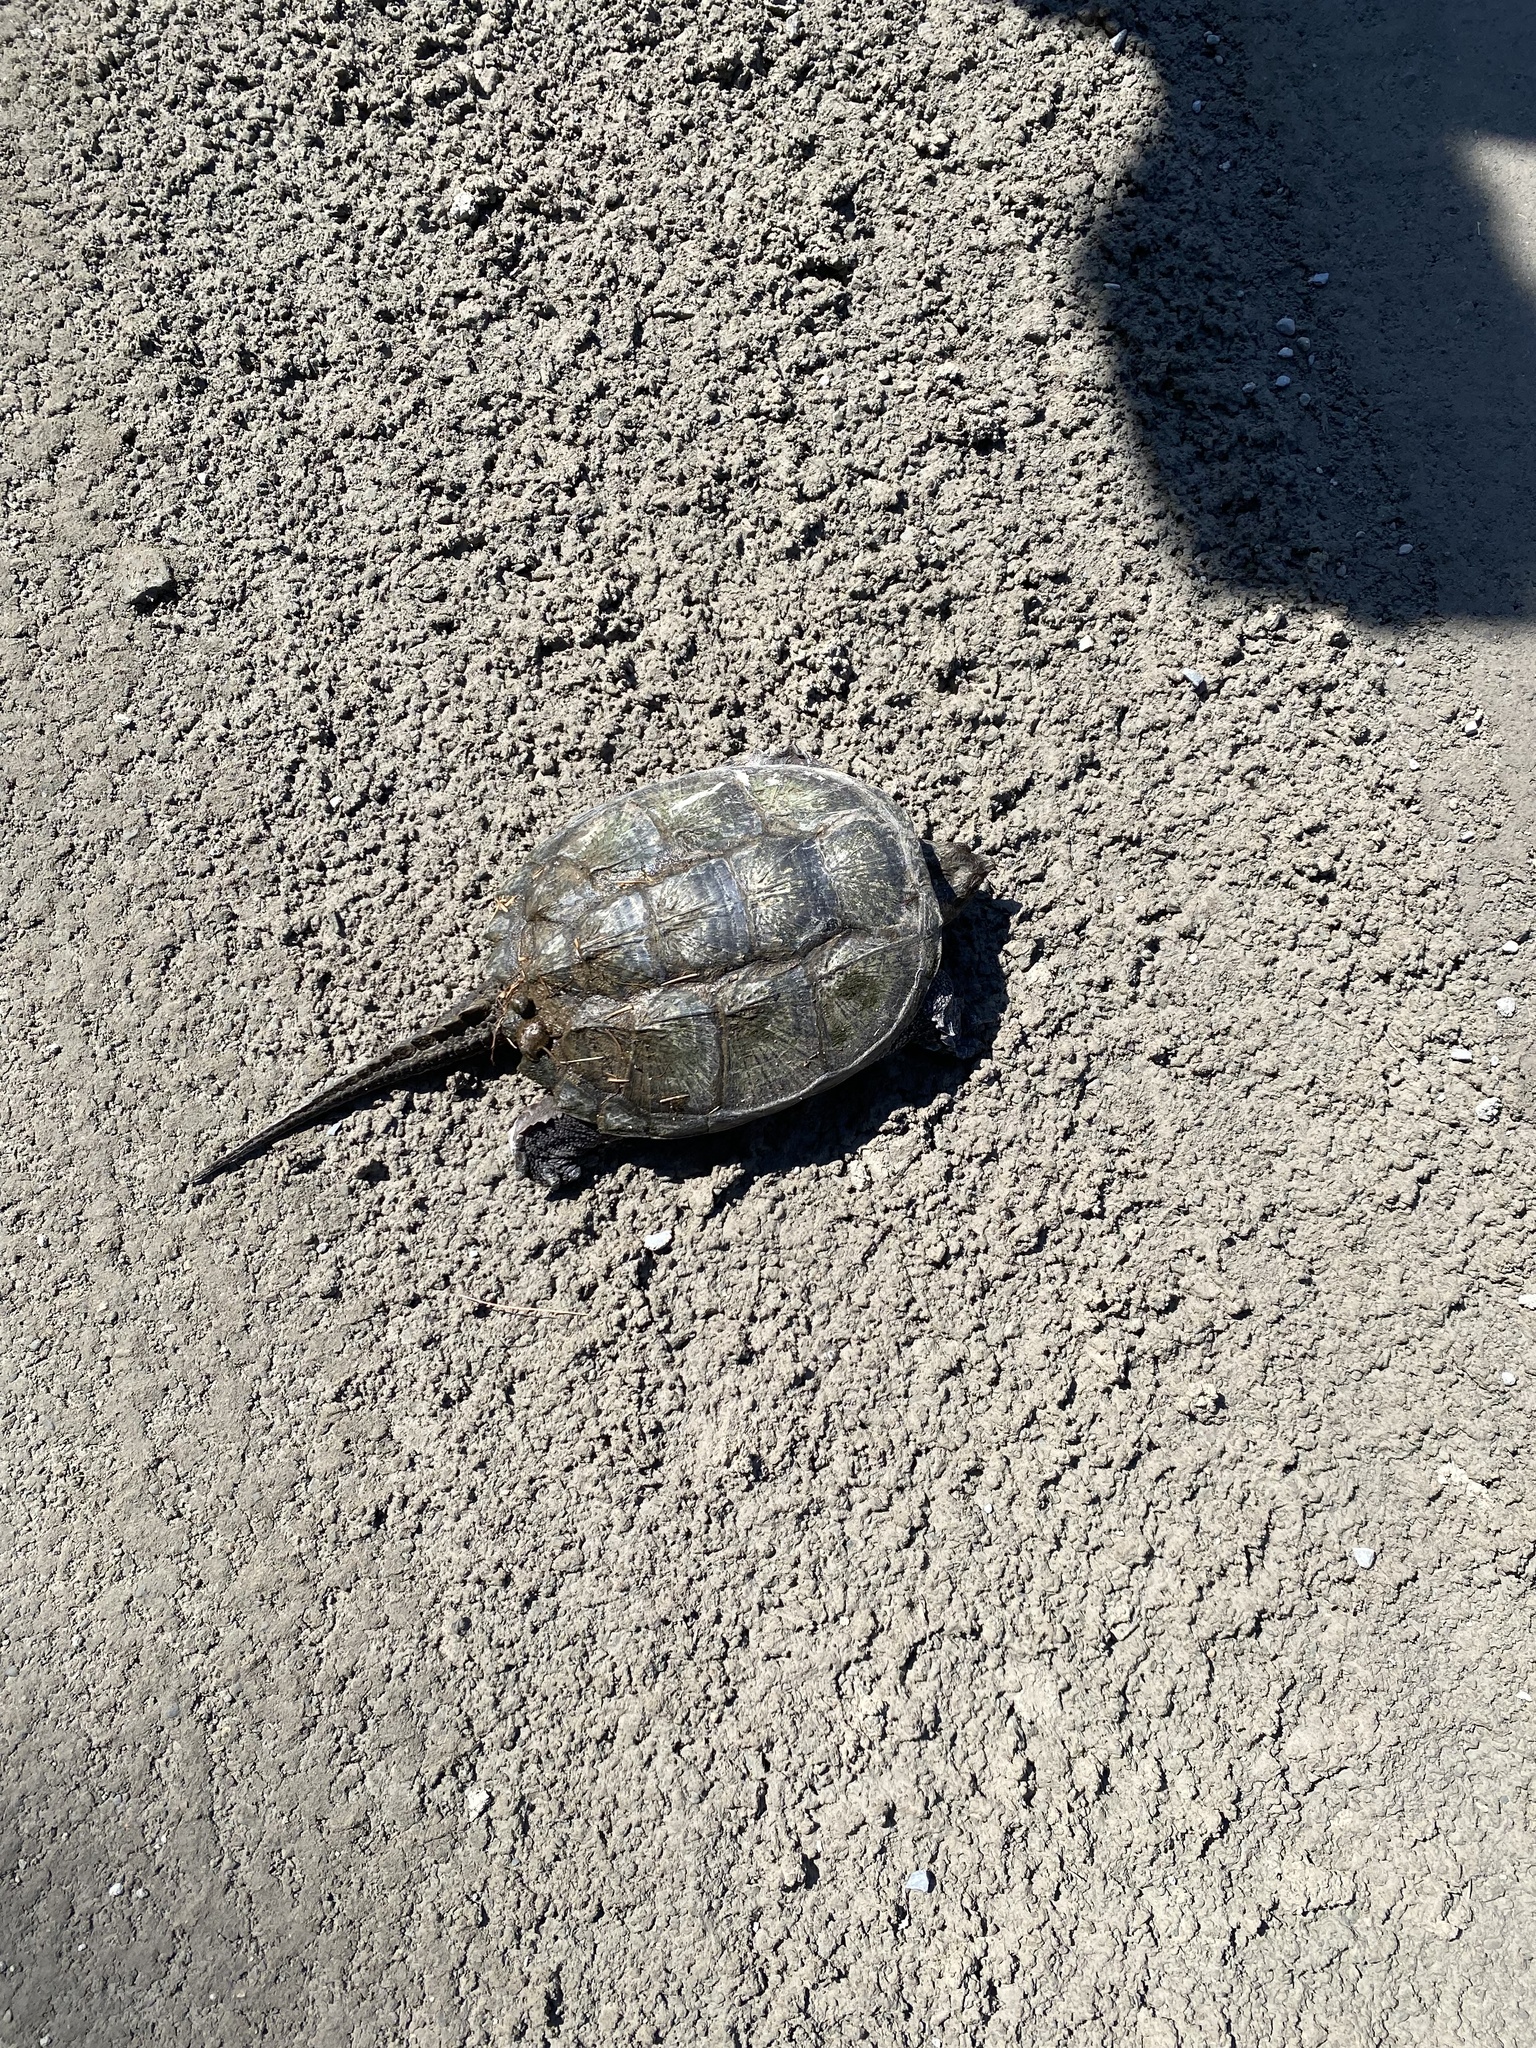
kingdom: Animalia
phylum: Chordata
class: Testudines
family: Chelydridae
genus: Chelydra
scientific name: Chelydra serpentina
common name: Common snapping turtle
